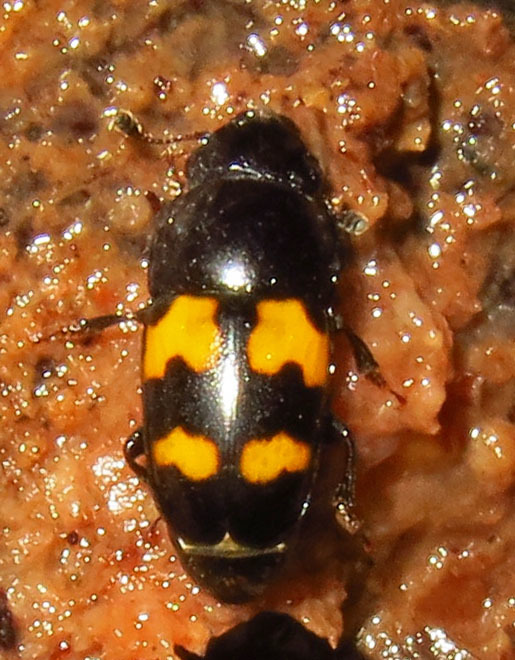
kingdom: Animalia
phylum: Arthropoda
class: Insecta
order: Coleoptera
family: Nitidulidae
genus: Glischrochilus
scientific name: Glischrochilus fasciatus
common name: Picnic beetle
